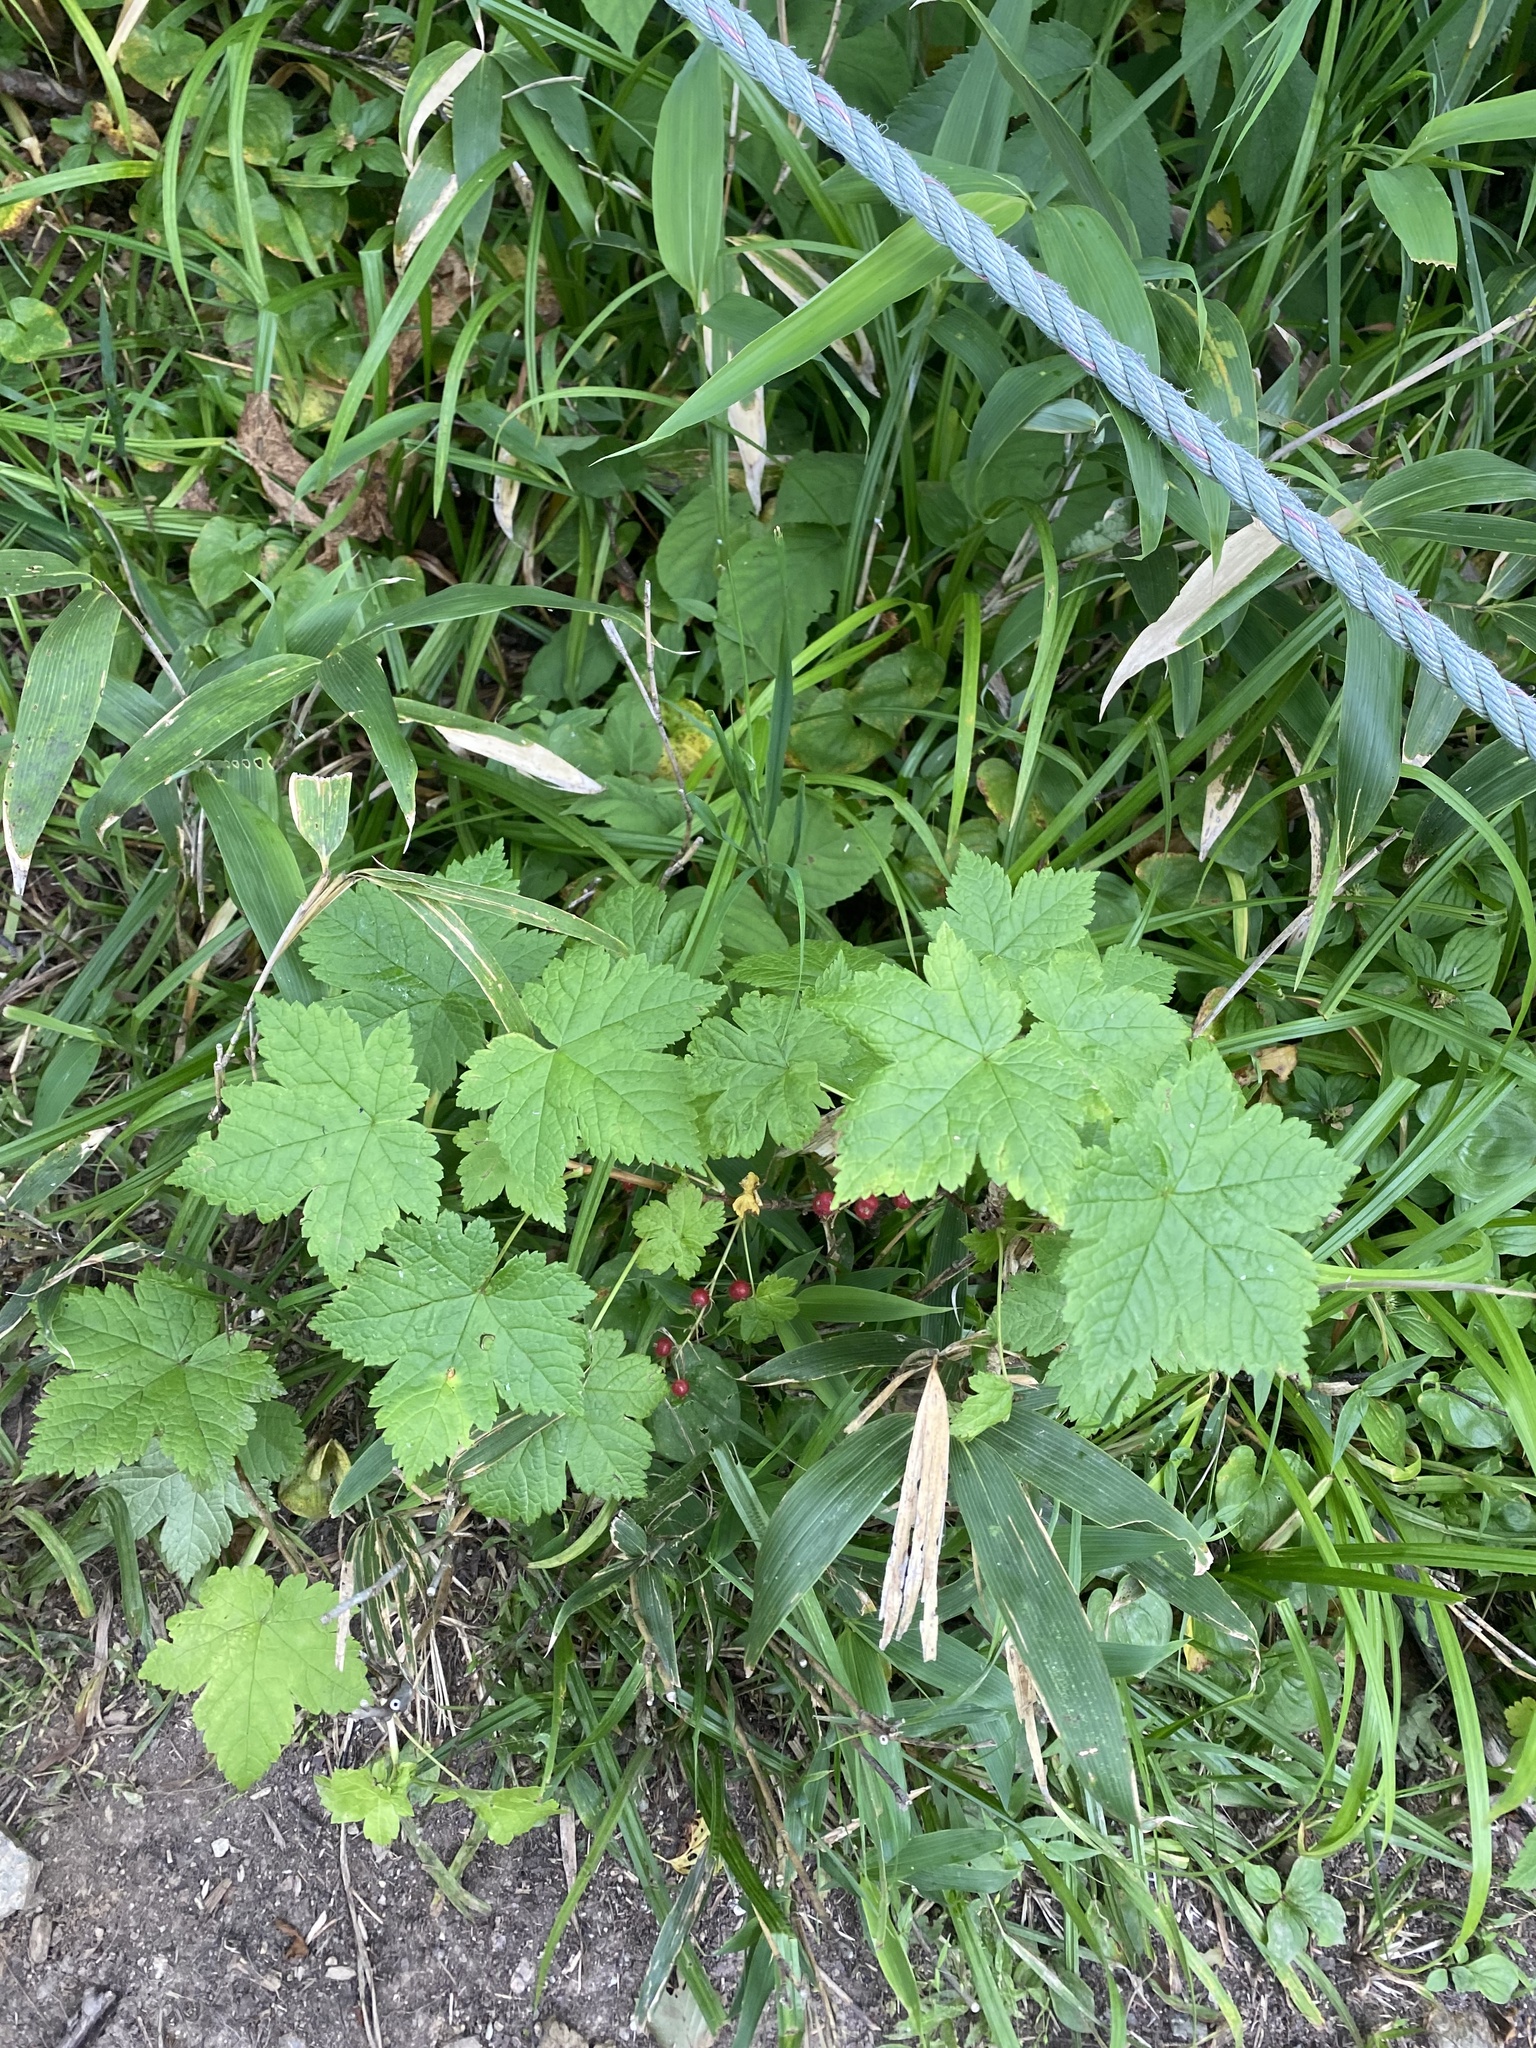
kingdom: Plantae
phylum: Tracheophyta
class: Magnoliopsida
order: Saxifragales
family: Grossulariaceae
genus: Ribes
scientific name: Ribes sachalinense
